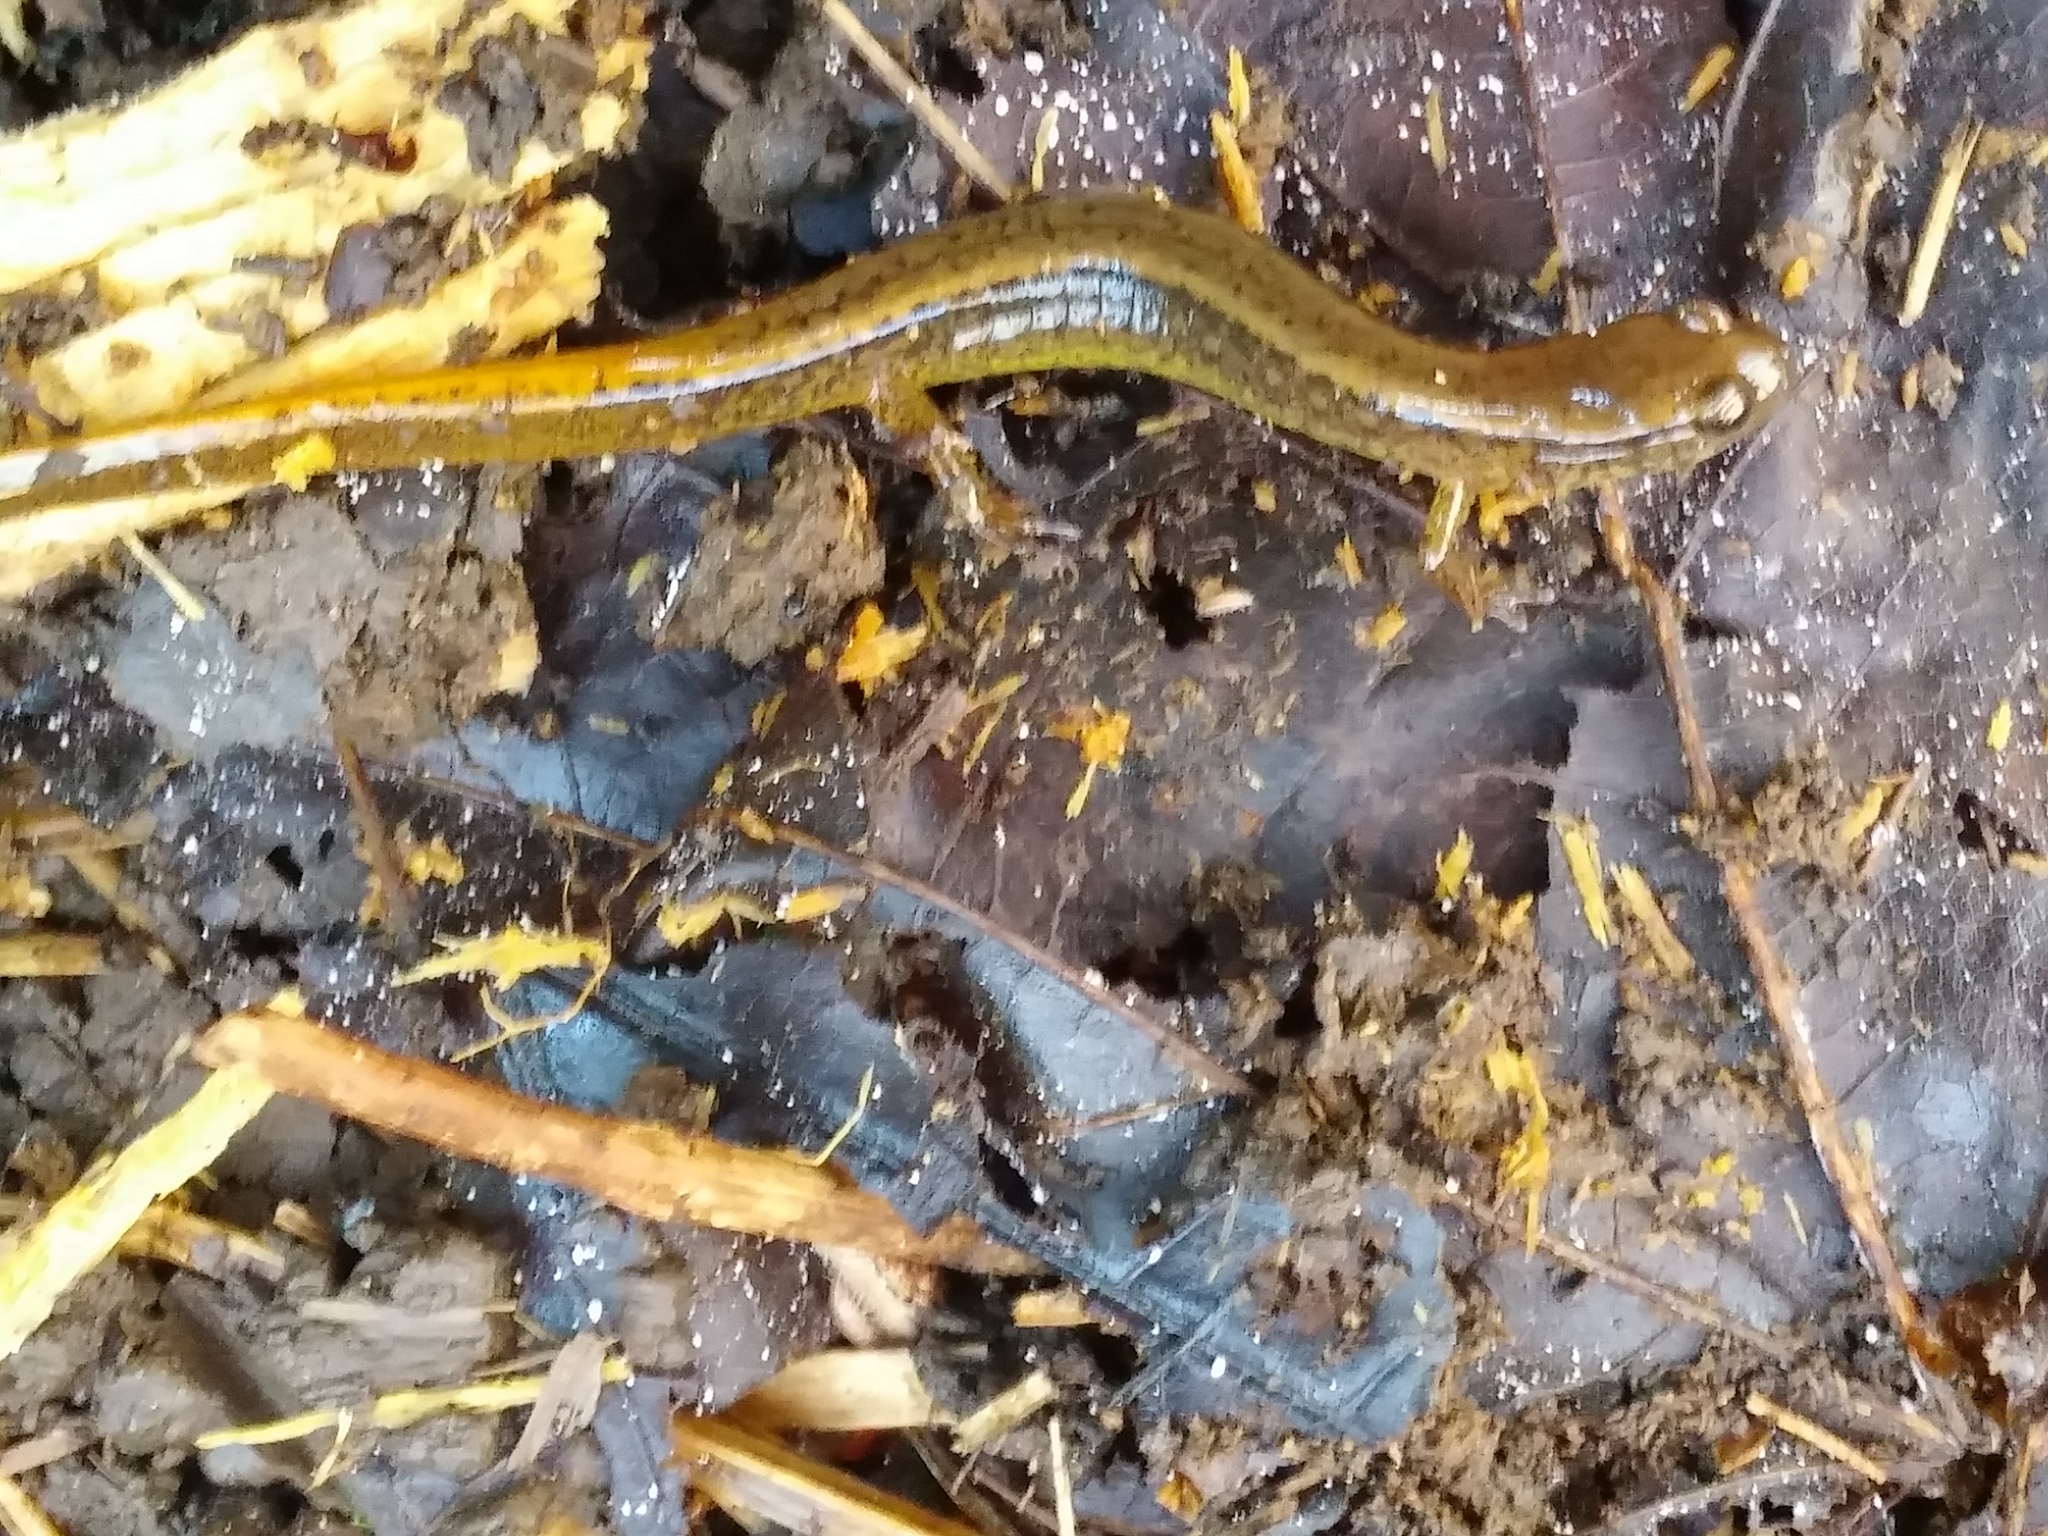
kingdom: Animalia
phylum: Chordata
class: Amphibia
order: Caudata
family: Plethodontidae
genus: Eurycea
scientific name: Eurycea bislineata
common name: Northern two-lined salamander
